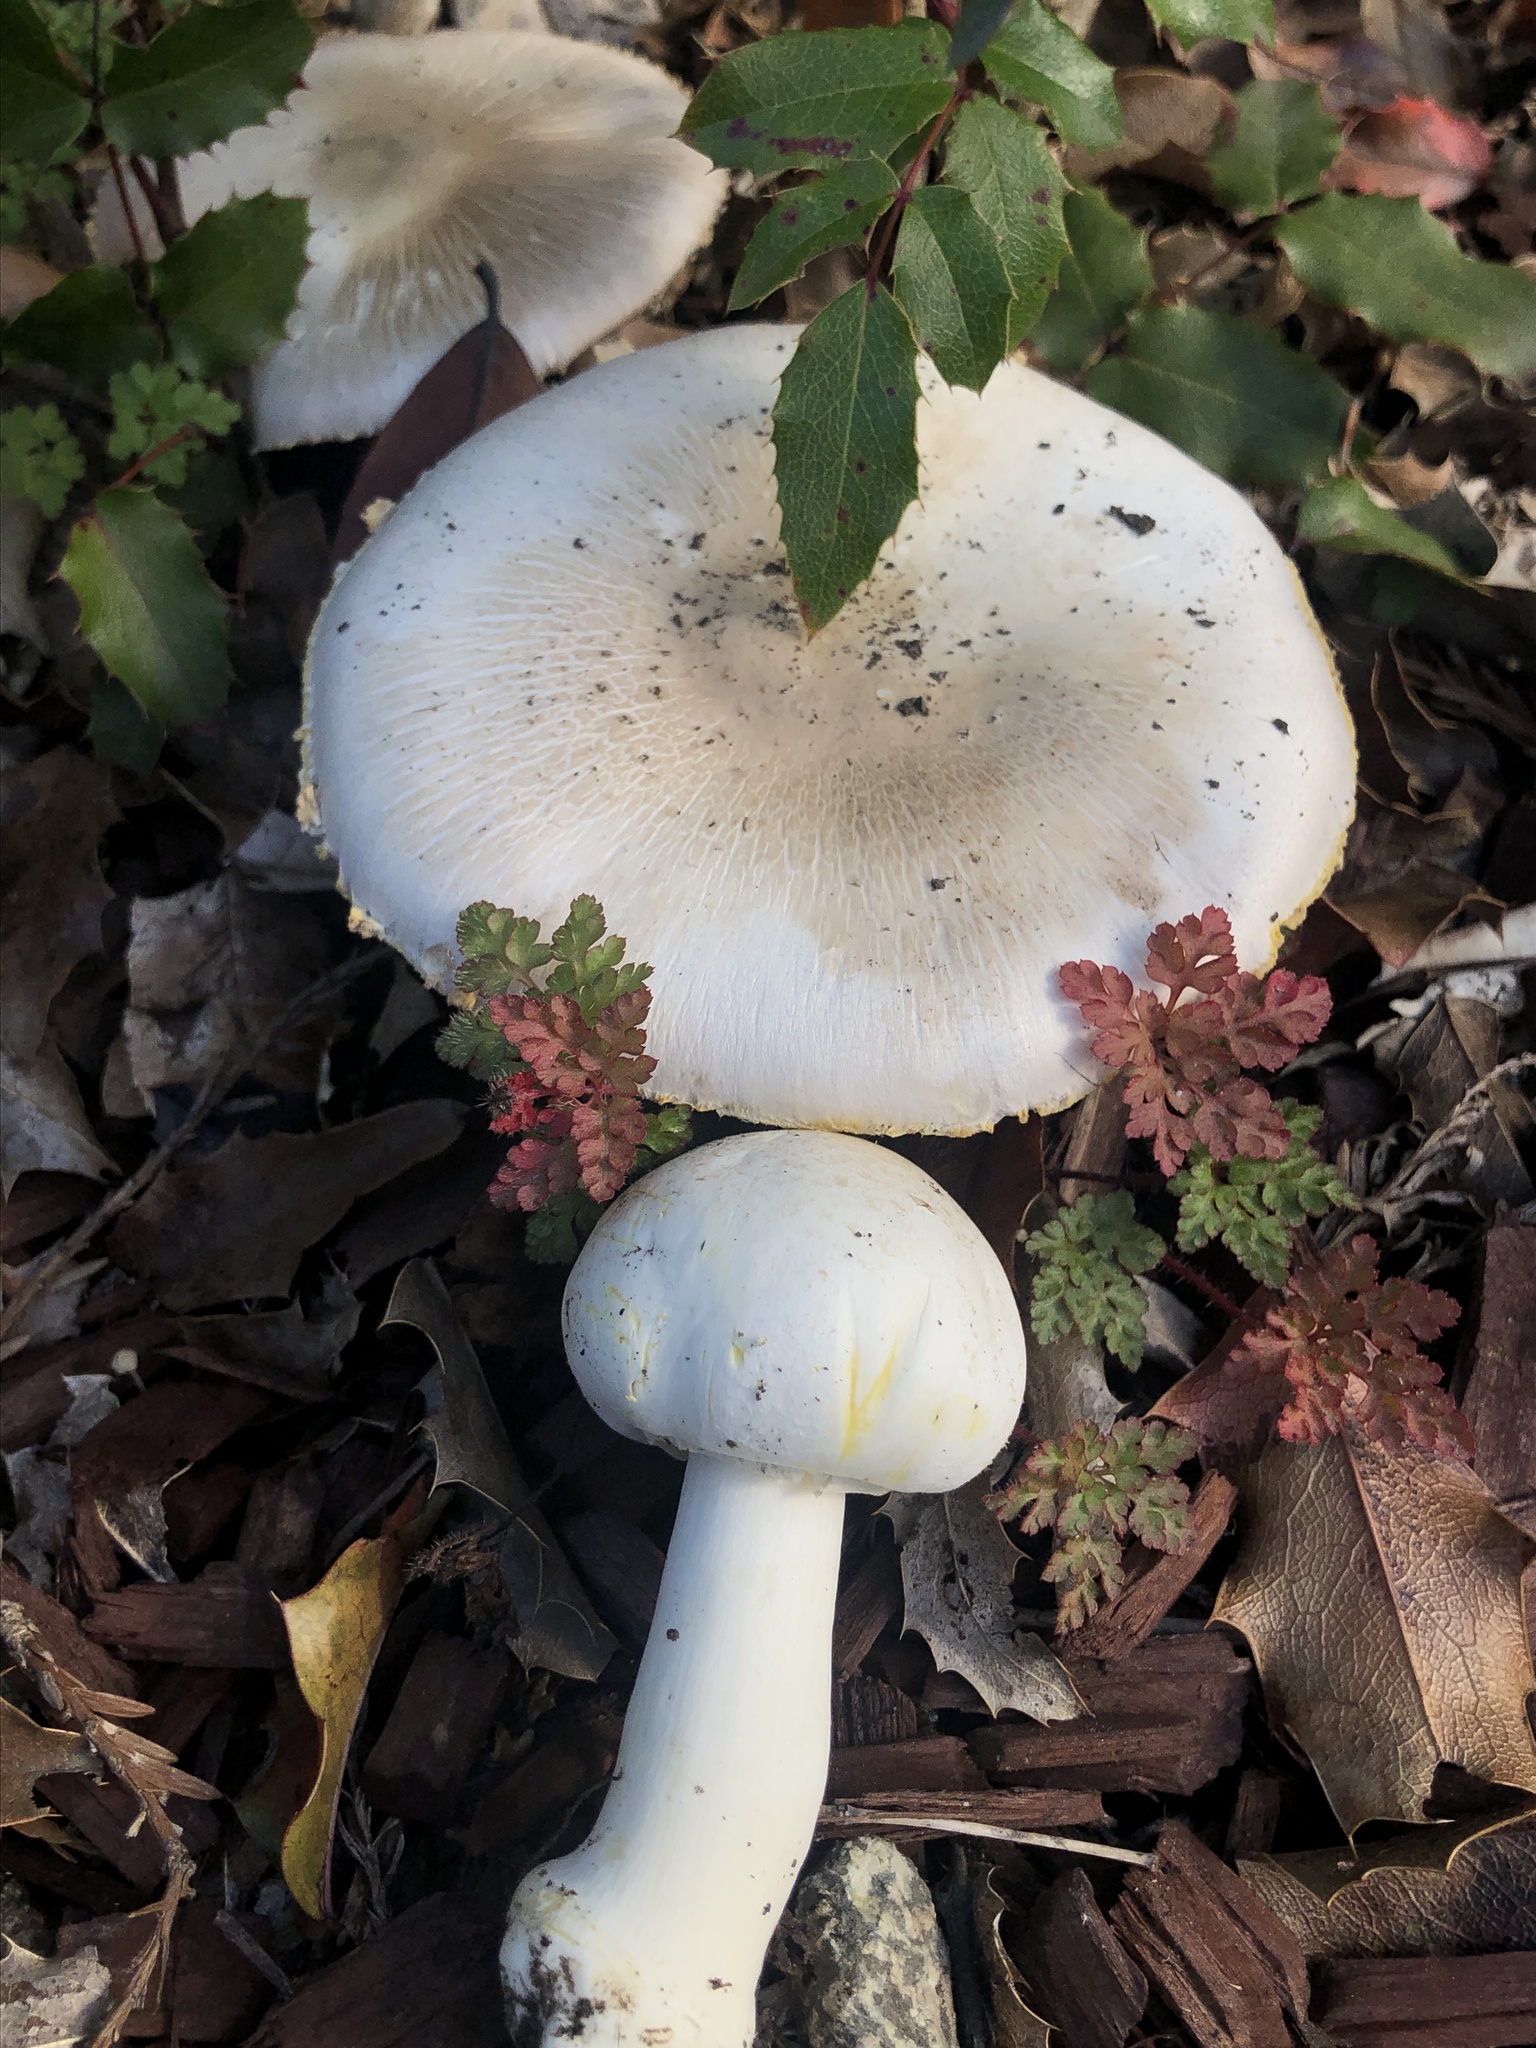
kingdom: Fungi
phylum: Basidiomycota
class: Agaricomycetes
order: Agaricales
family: Agaricaceae
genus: Agaricus
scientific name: Agaricus xanthodermus
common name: Yellow stainer
